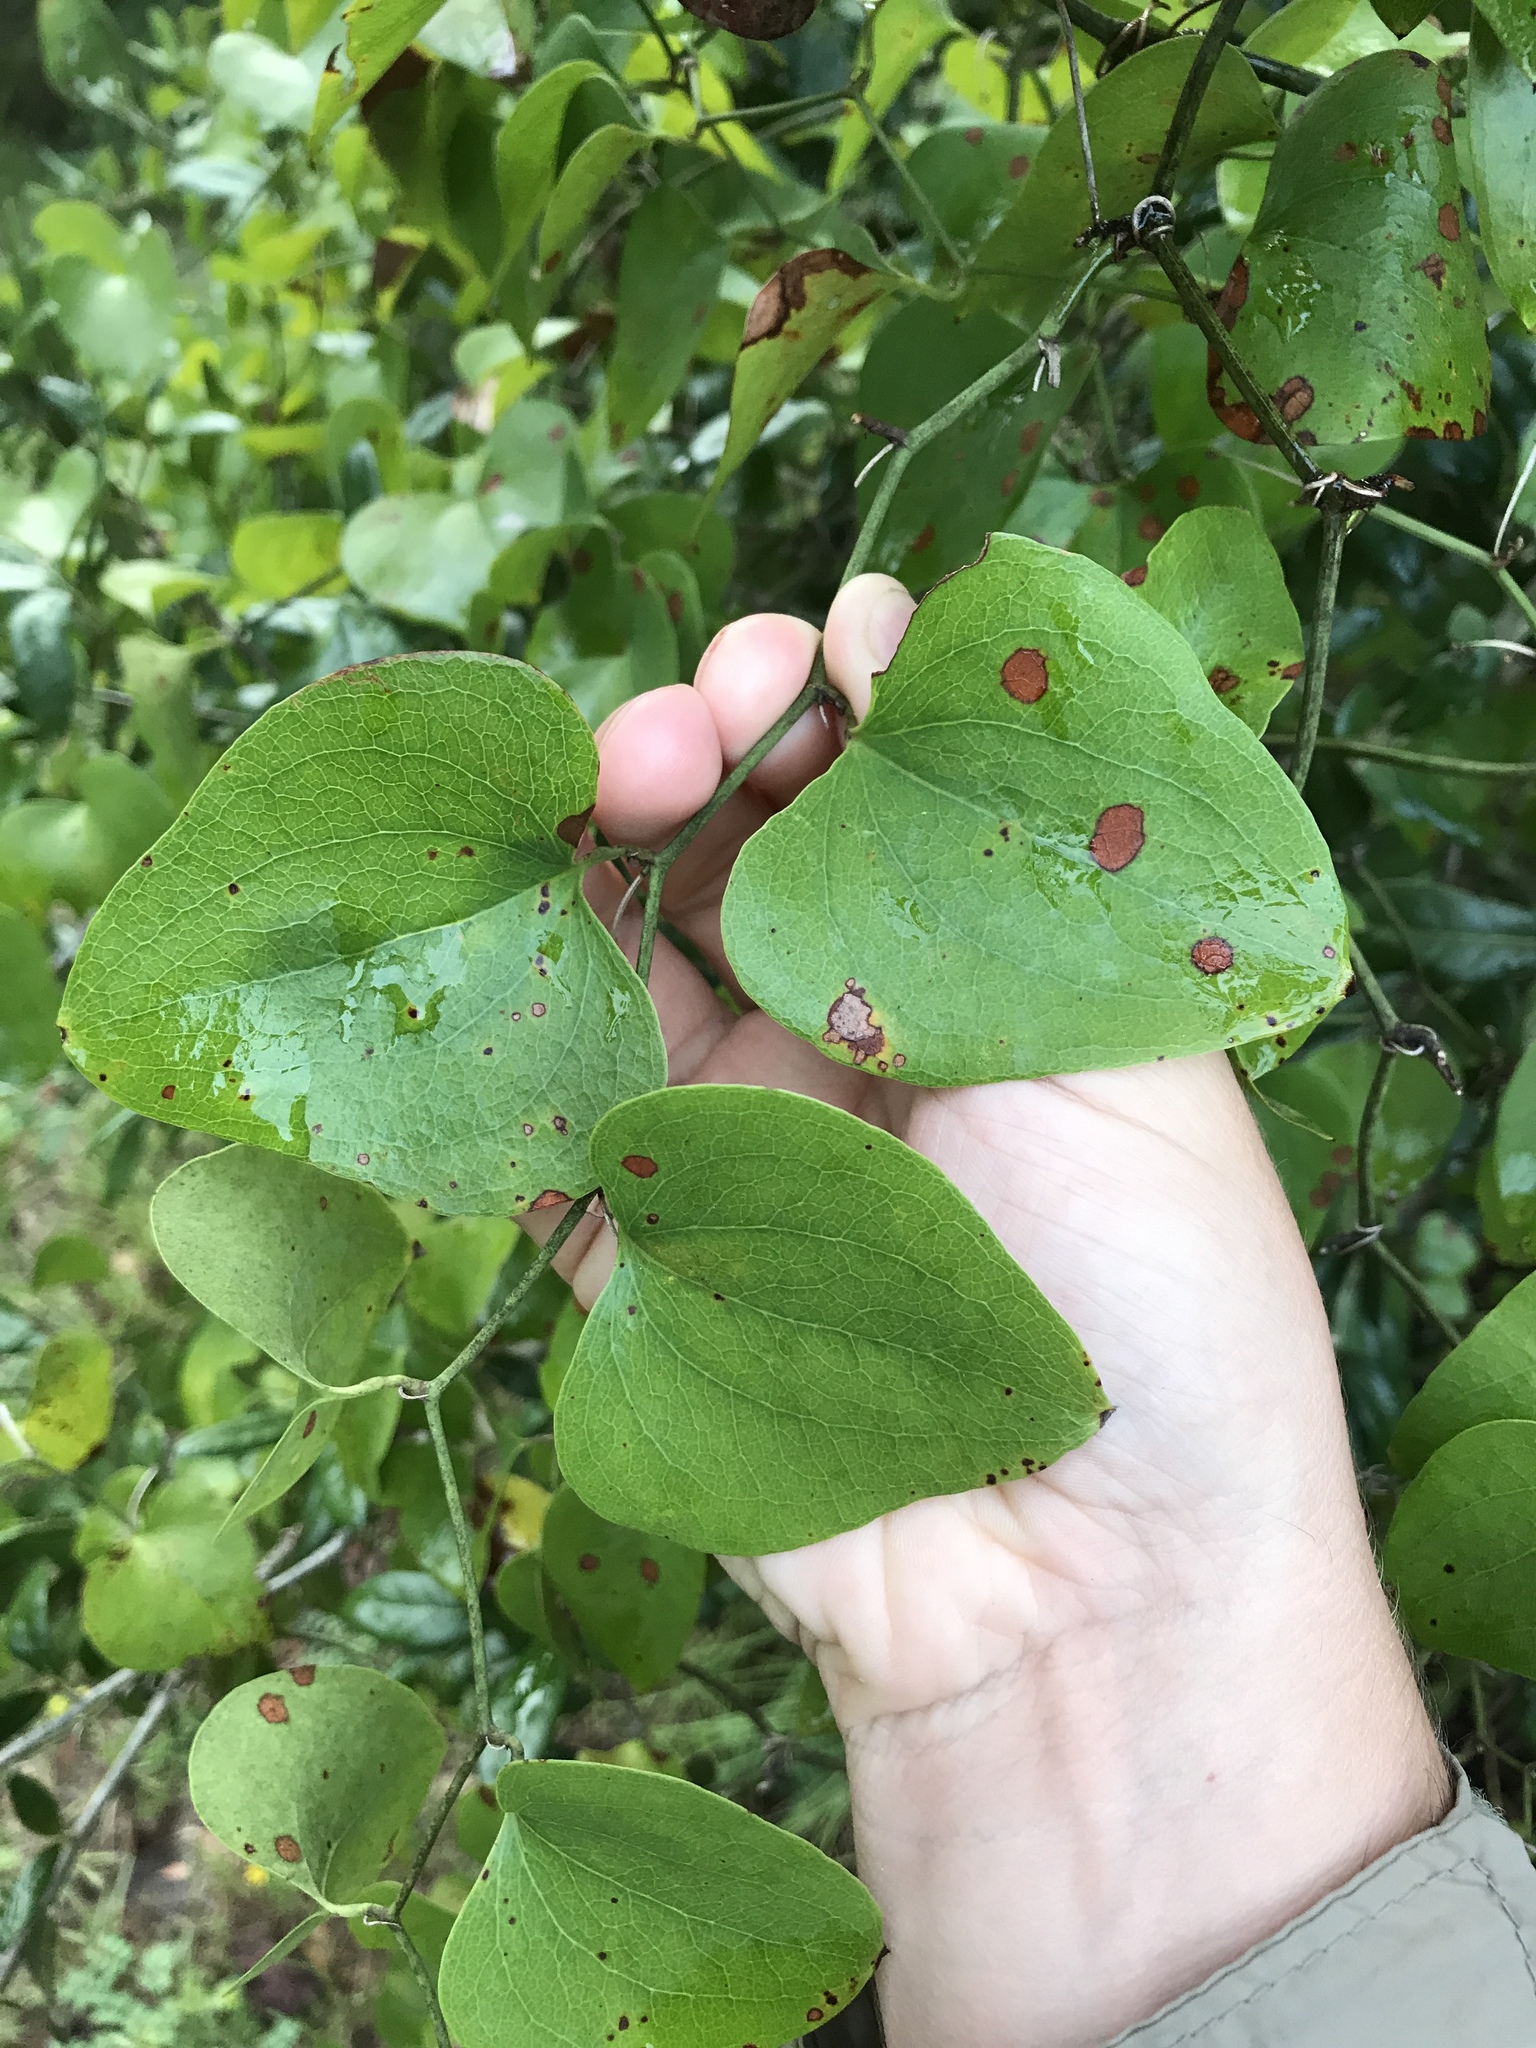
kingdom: Plantae
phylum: Tracheophyta
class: Liliopsida
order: Liliales
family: Smilacaceae
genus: Smilax
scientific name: Smilax bona-nox
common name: Catbrier
